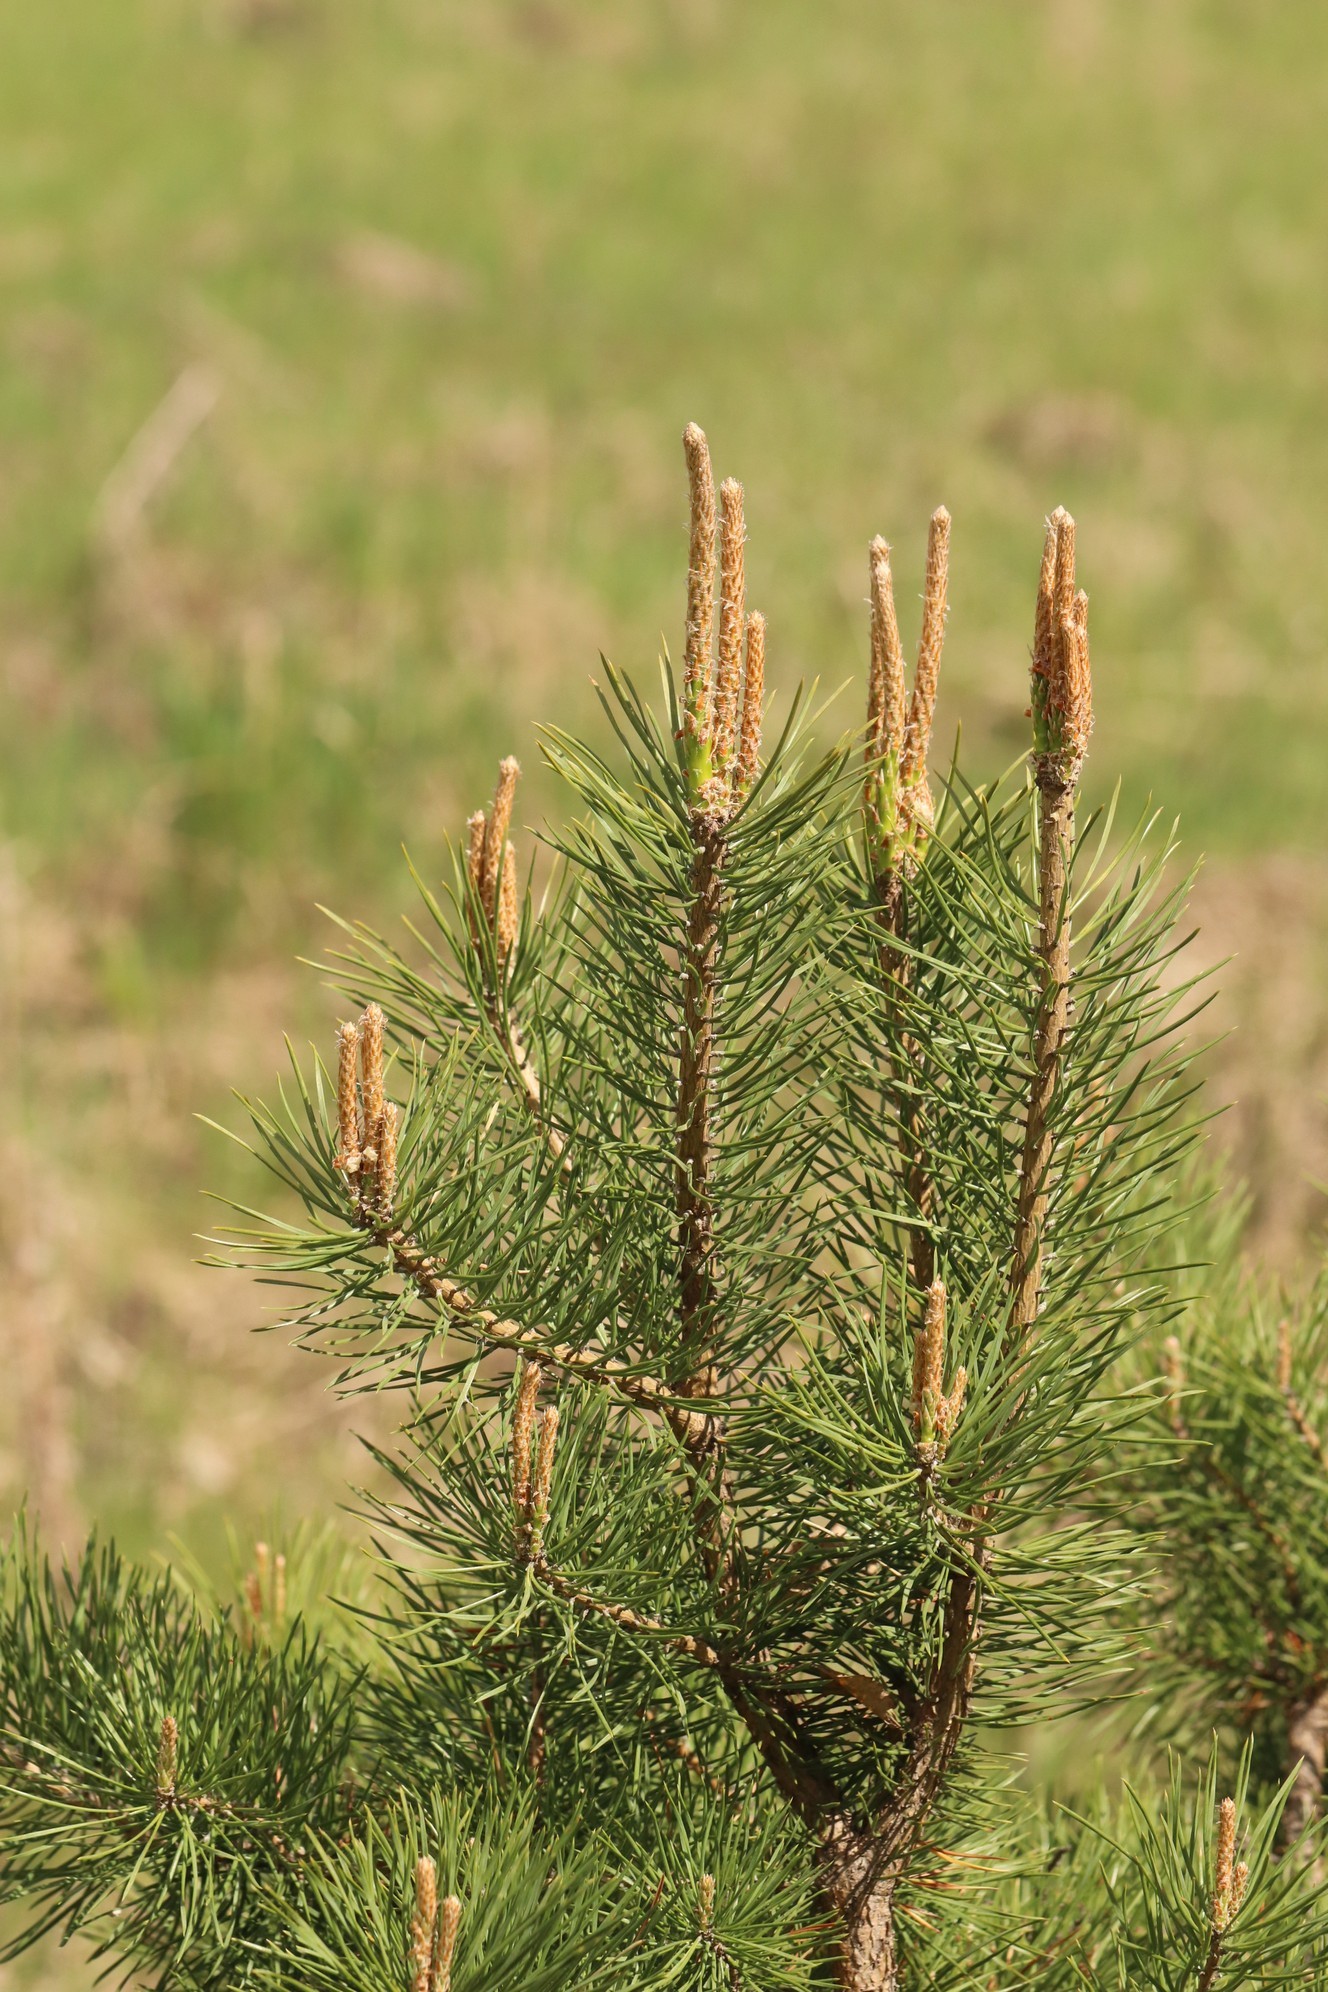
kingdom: Plantae
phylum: Tracheophyta
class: Pinopsida
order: Pinales
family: Pinaceae
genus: Pinus
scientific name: Pinus sylvestris
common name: Scots pine
